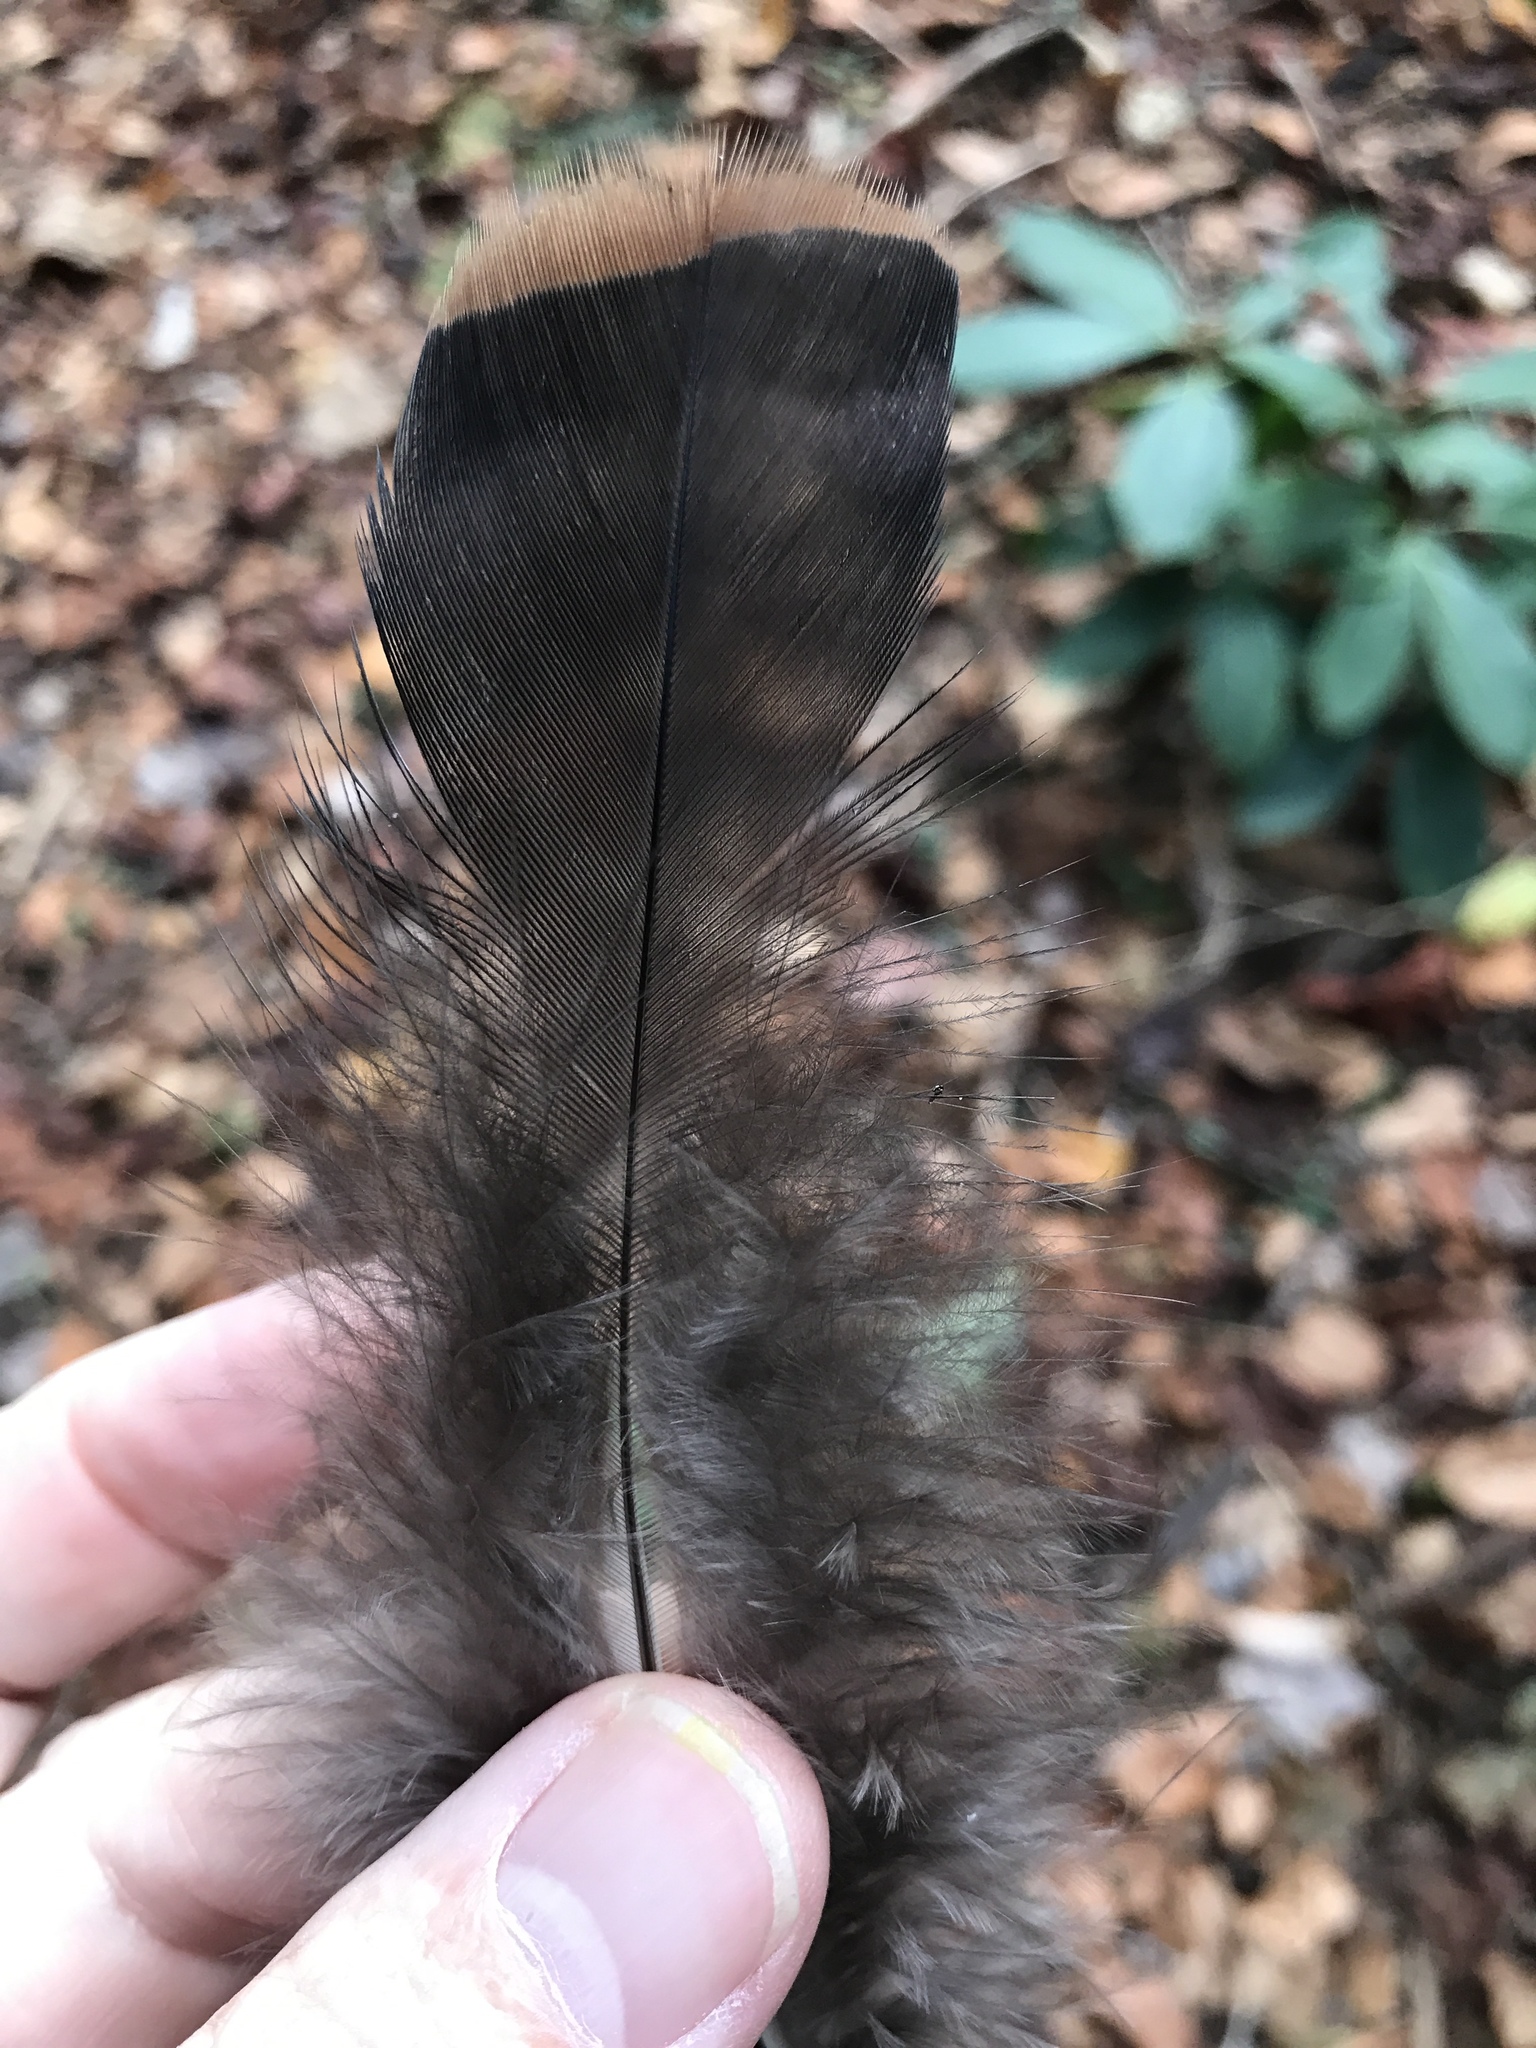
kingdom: Animalia
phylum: Chordata
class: Aves
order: Galliformes
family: Phasianidae
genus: Meleagris
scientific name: Meleagris gallopavo
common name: Wild turkey
